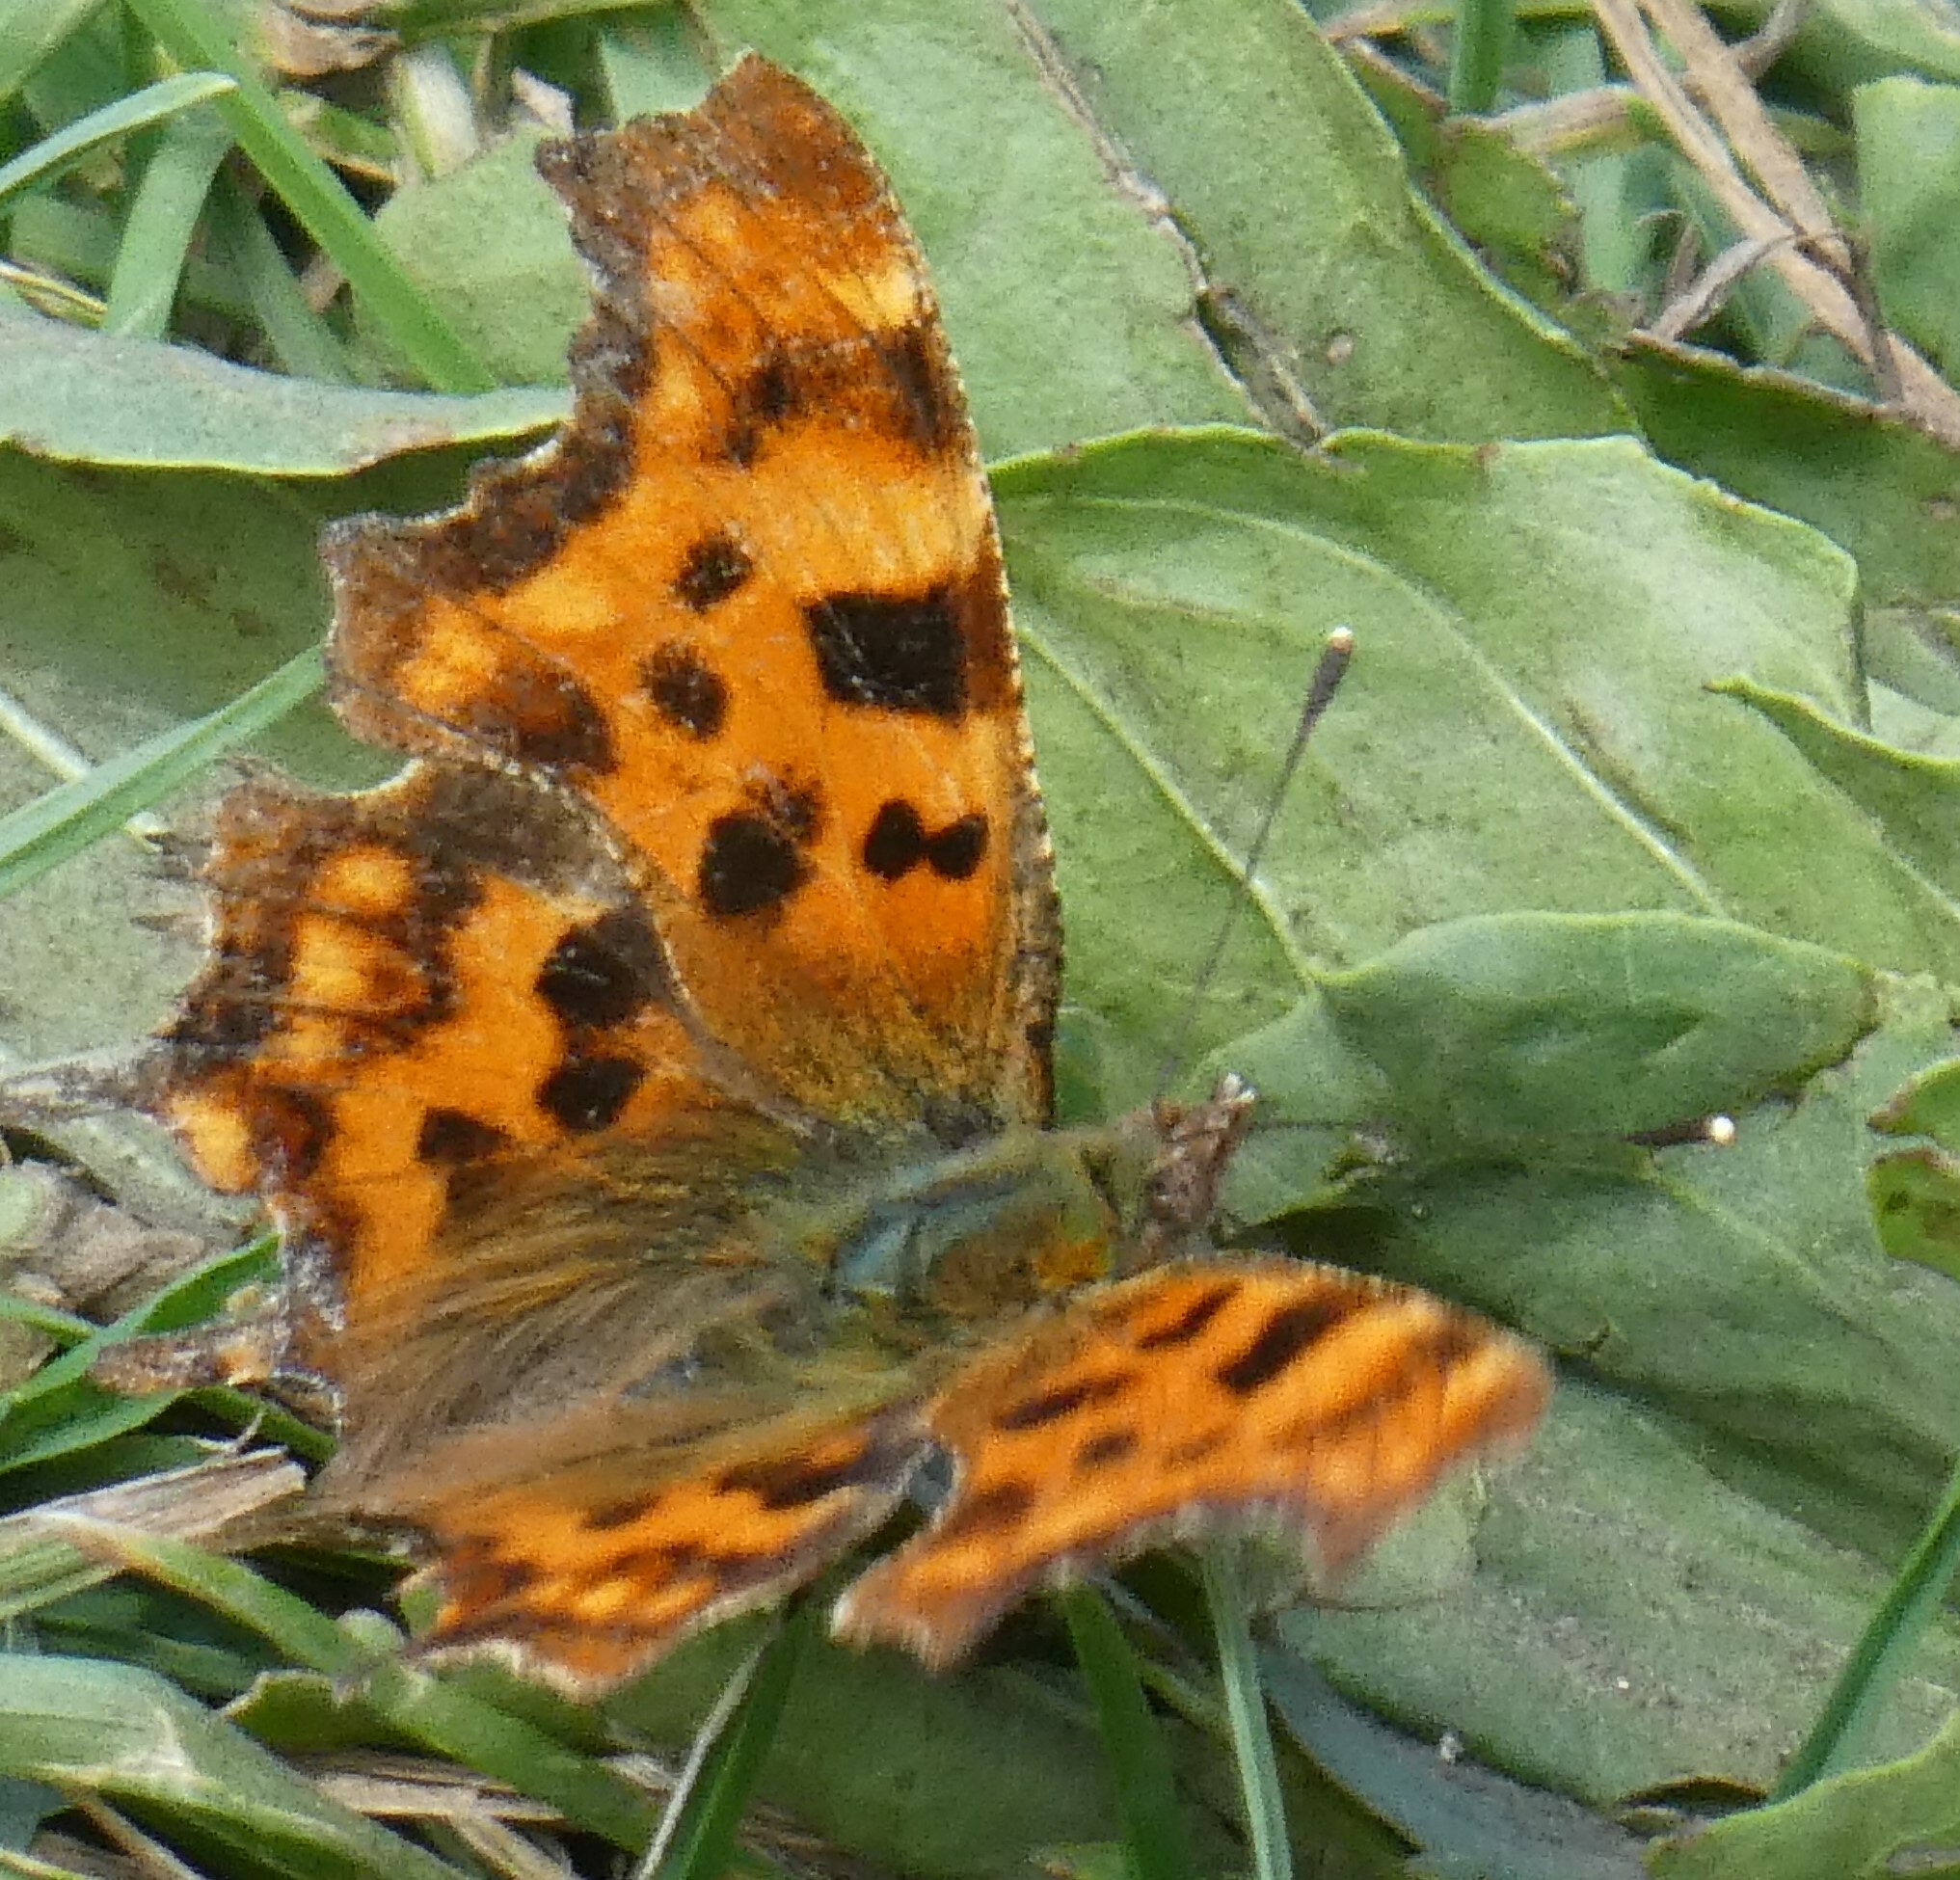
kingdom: Animalia
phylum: Arthropoda
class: Insecta
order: Lepidoptera
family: Nymphalidae
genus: Polygonia
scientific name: Polygonia c-album
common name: Comma
